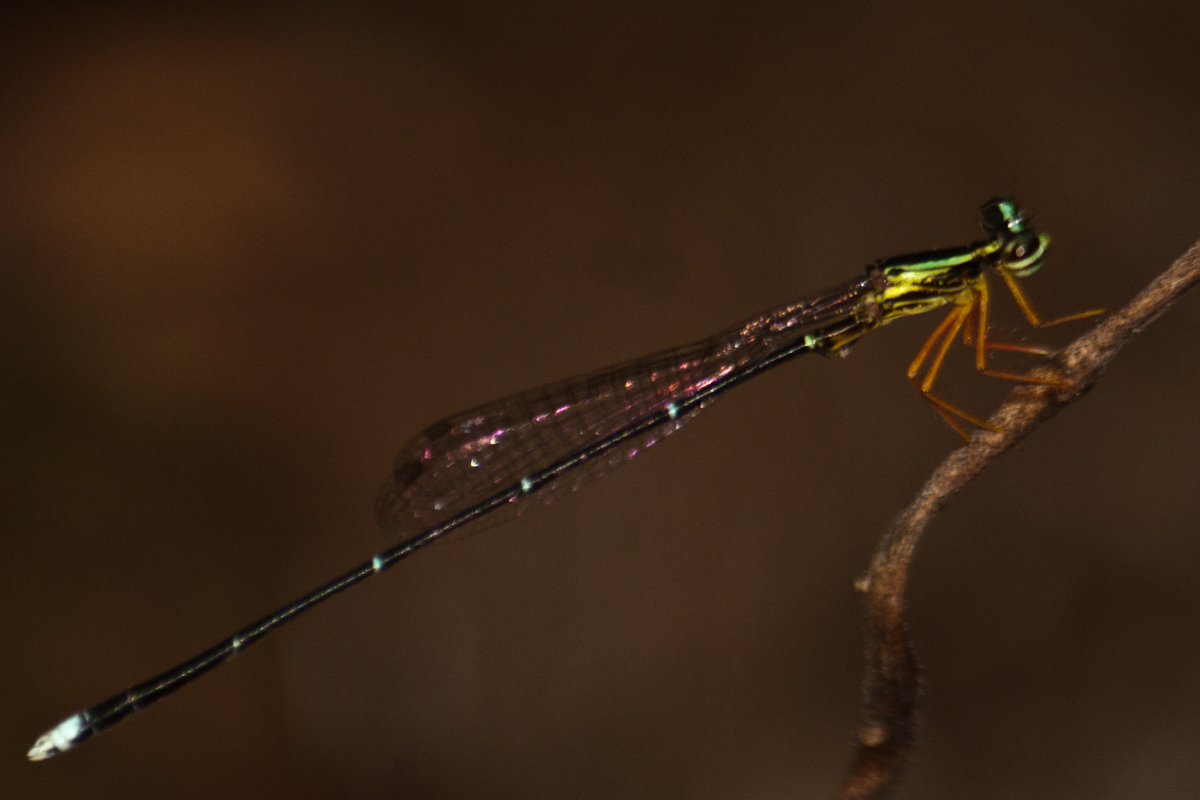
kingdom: Animalia
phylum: Arthropoda
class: Insecta
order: Odonata
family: Platycnemididae
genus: Copera
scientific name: Copera vittata
